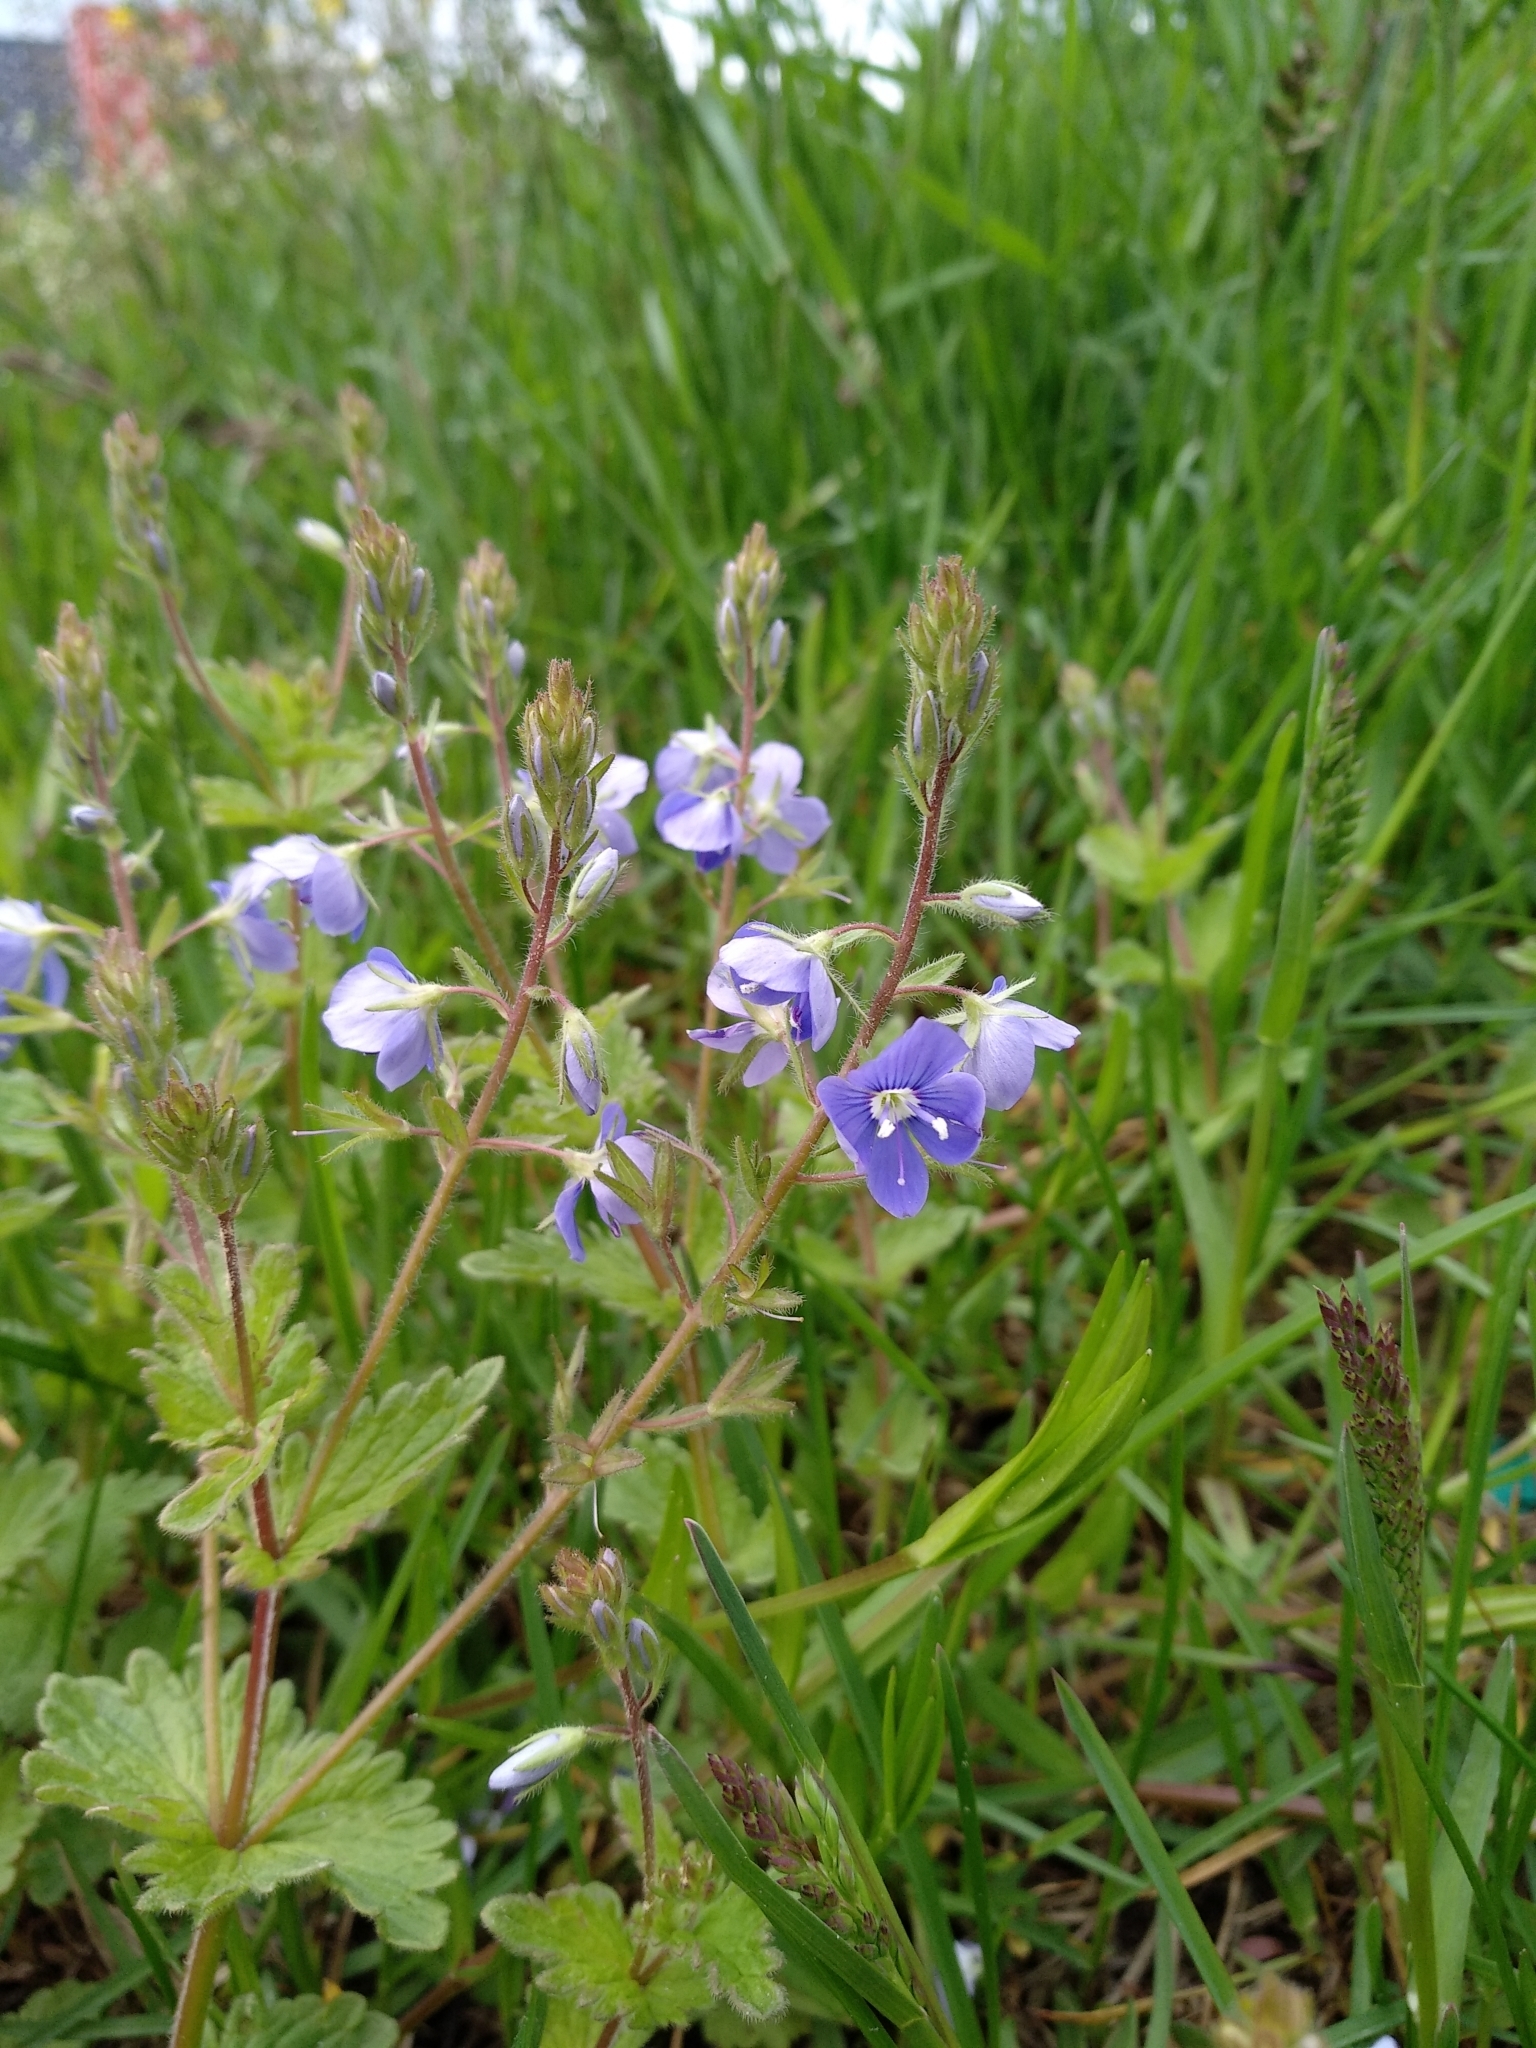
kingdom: Plantae
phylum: Tracheophyta
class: Magnoliopsida
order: Lamiales
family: Plantaginaceae
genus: Veronica
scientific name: Veronica chamaedrys
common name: Germander speedwell
